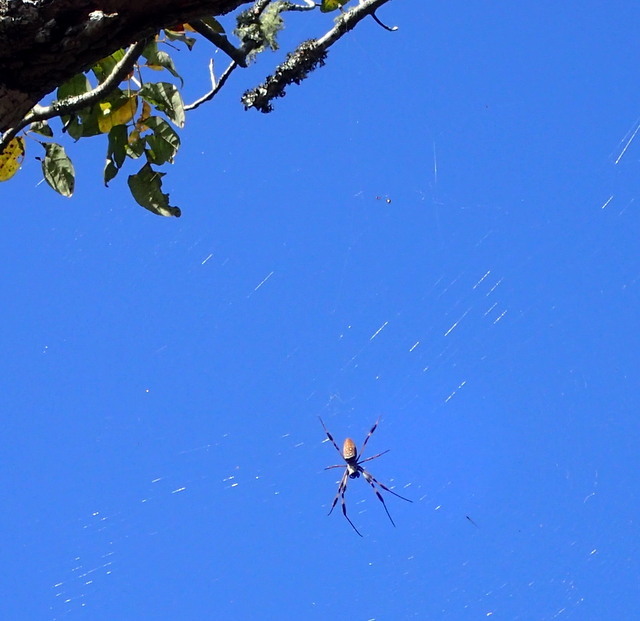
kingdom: Animalia
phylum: Arthropoda
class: Arachnida
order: Araneae
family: Araneidae
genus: Trichonephila
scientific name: Trichonephila clavipes
